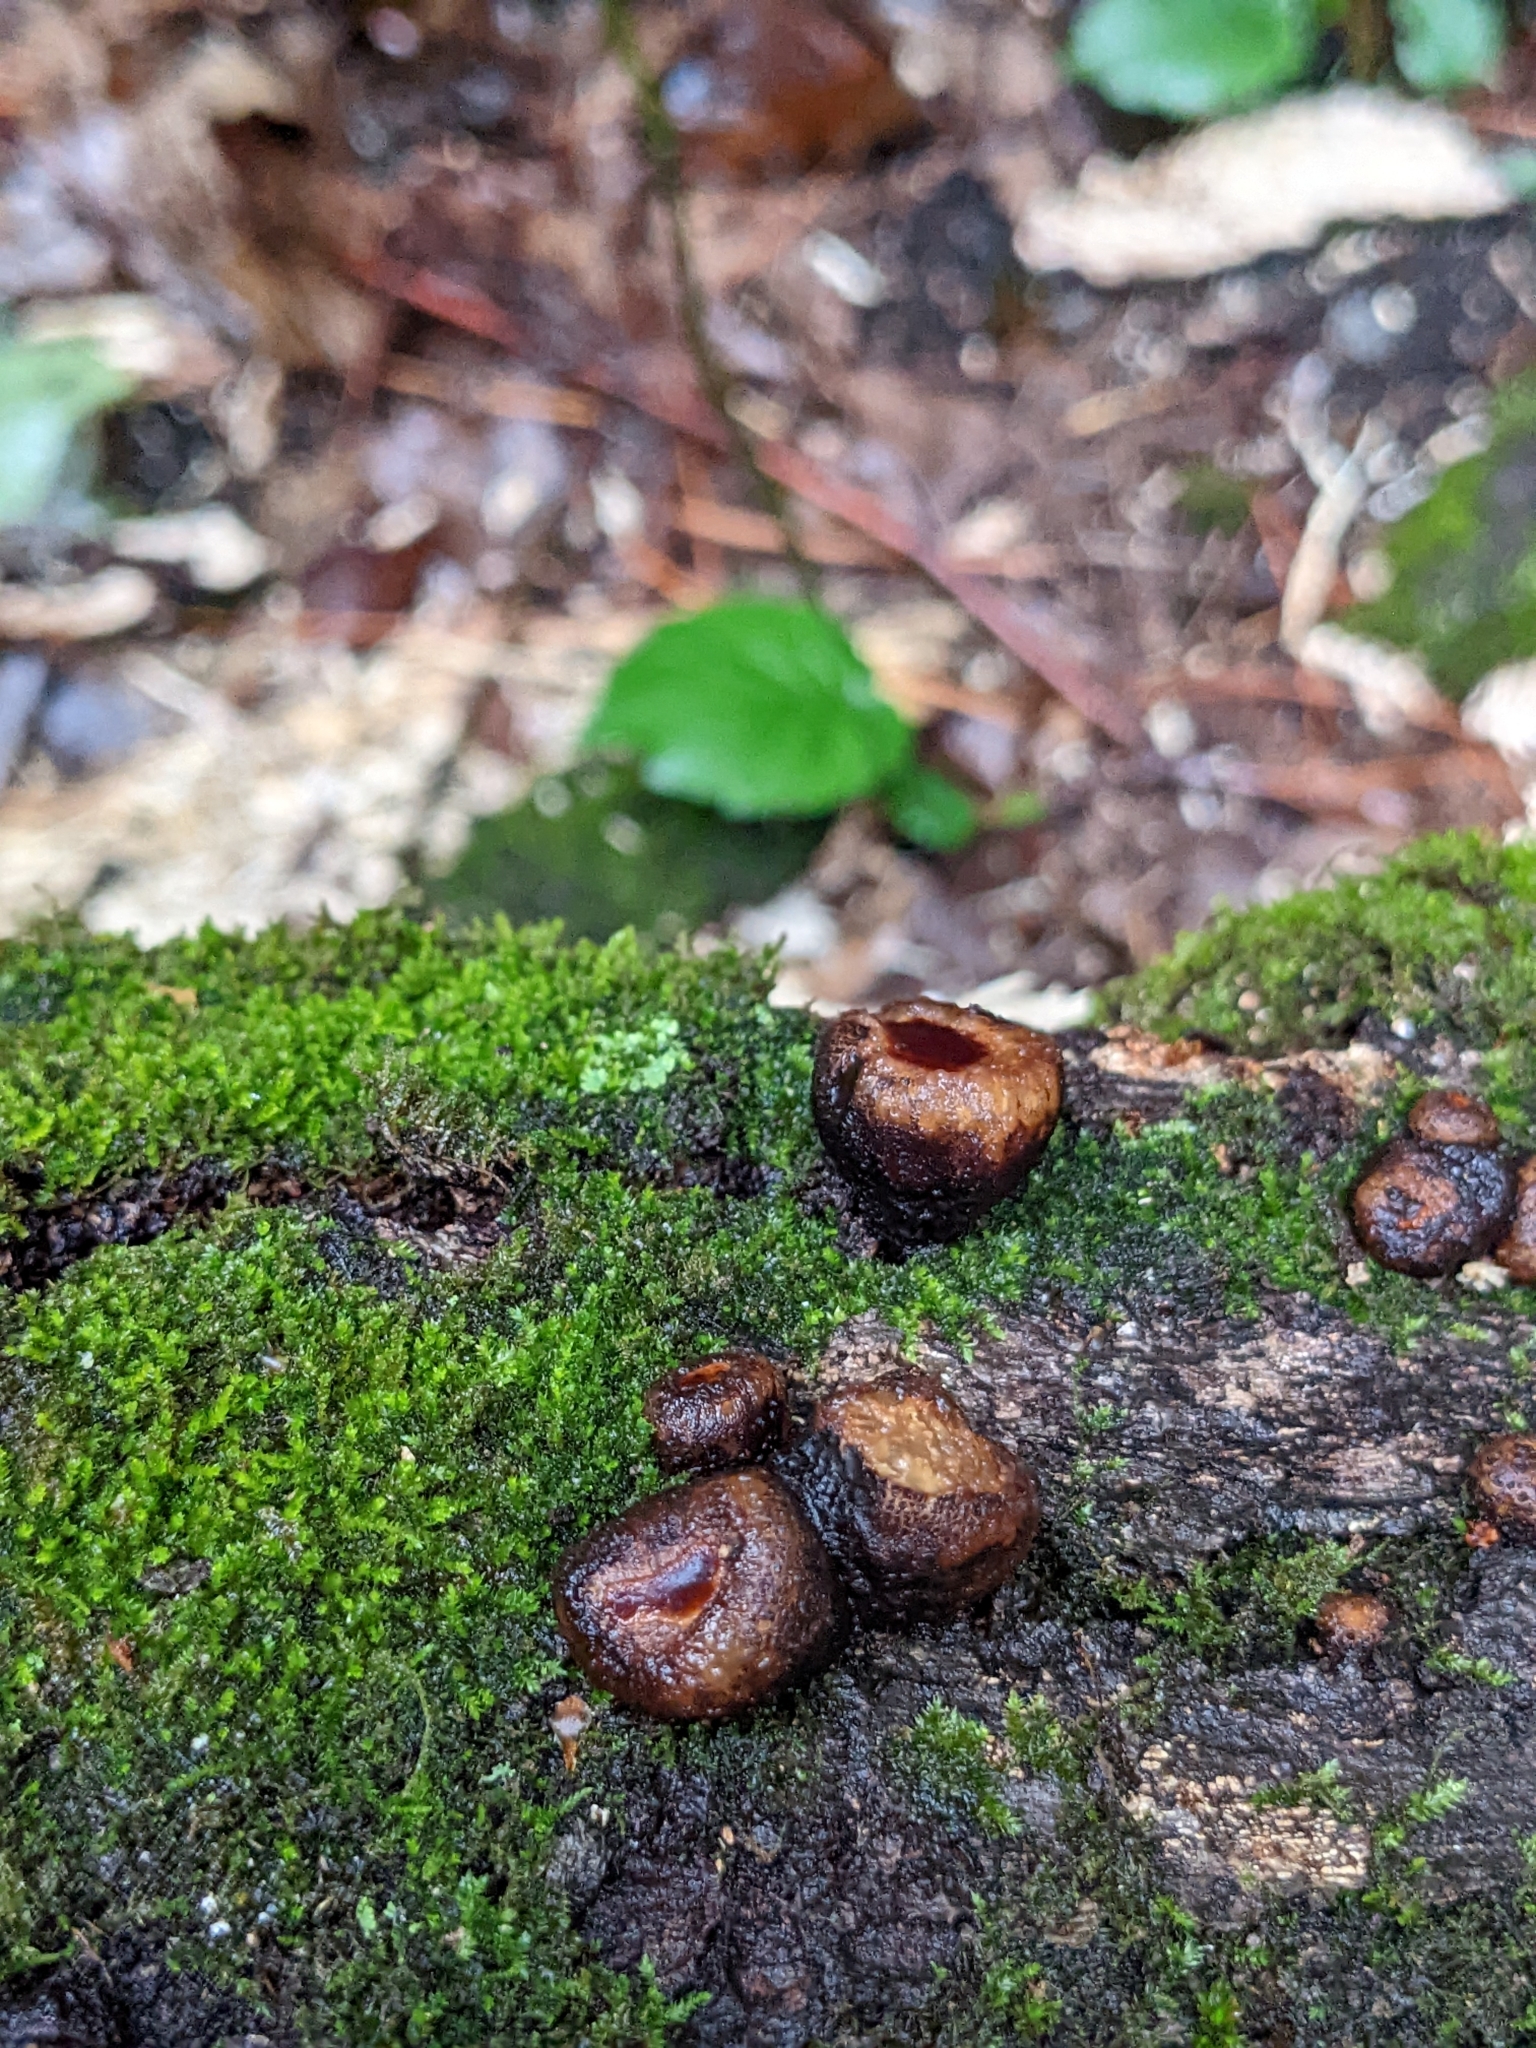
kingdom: Fungi
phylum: Ascomycota
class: Leotiomycetes
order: Phacidiales
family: Phacidiaceae
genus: Bulgaria
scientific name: Bulgaria inquinans
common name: Black bulgar
